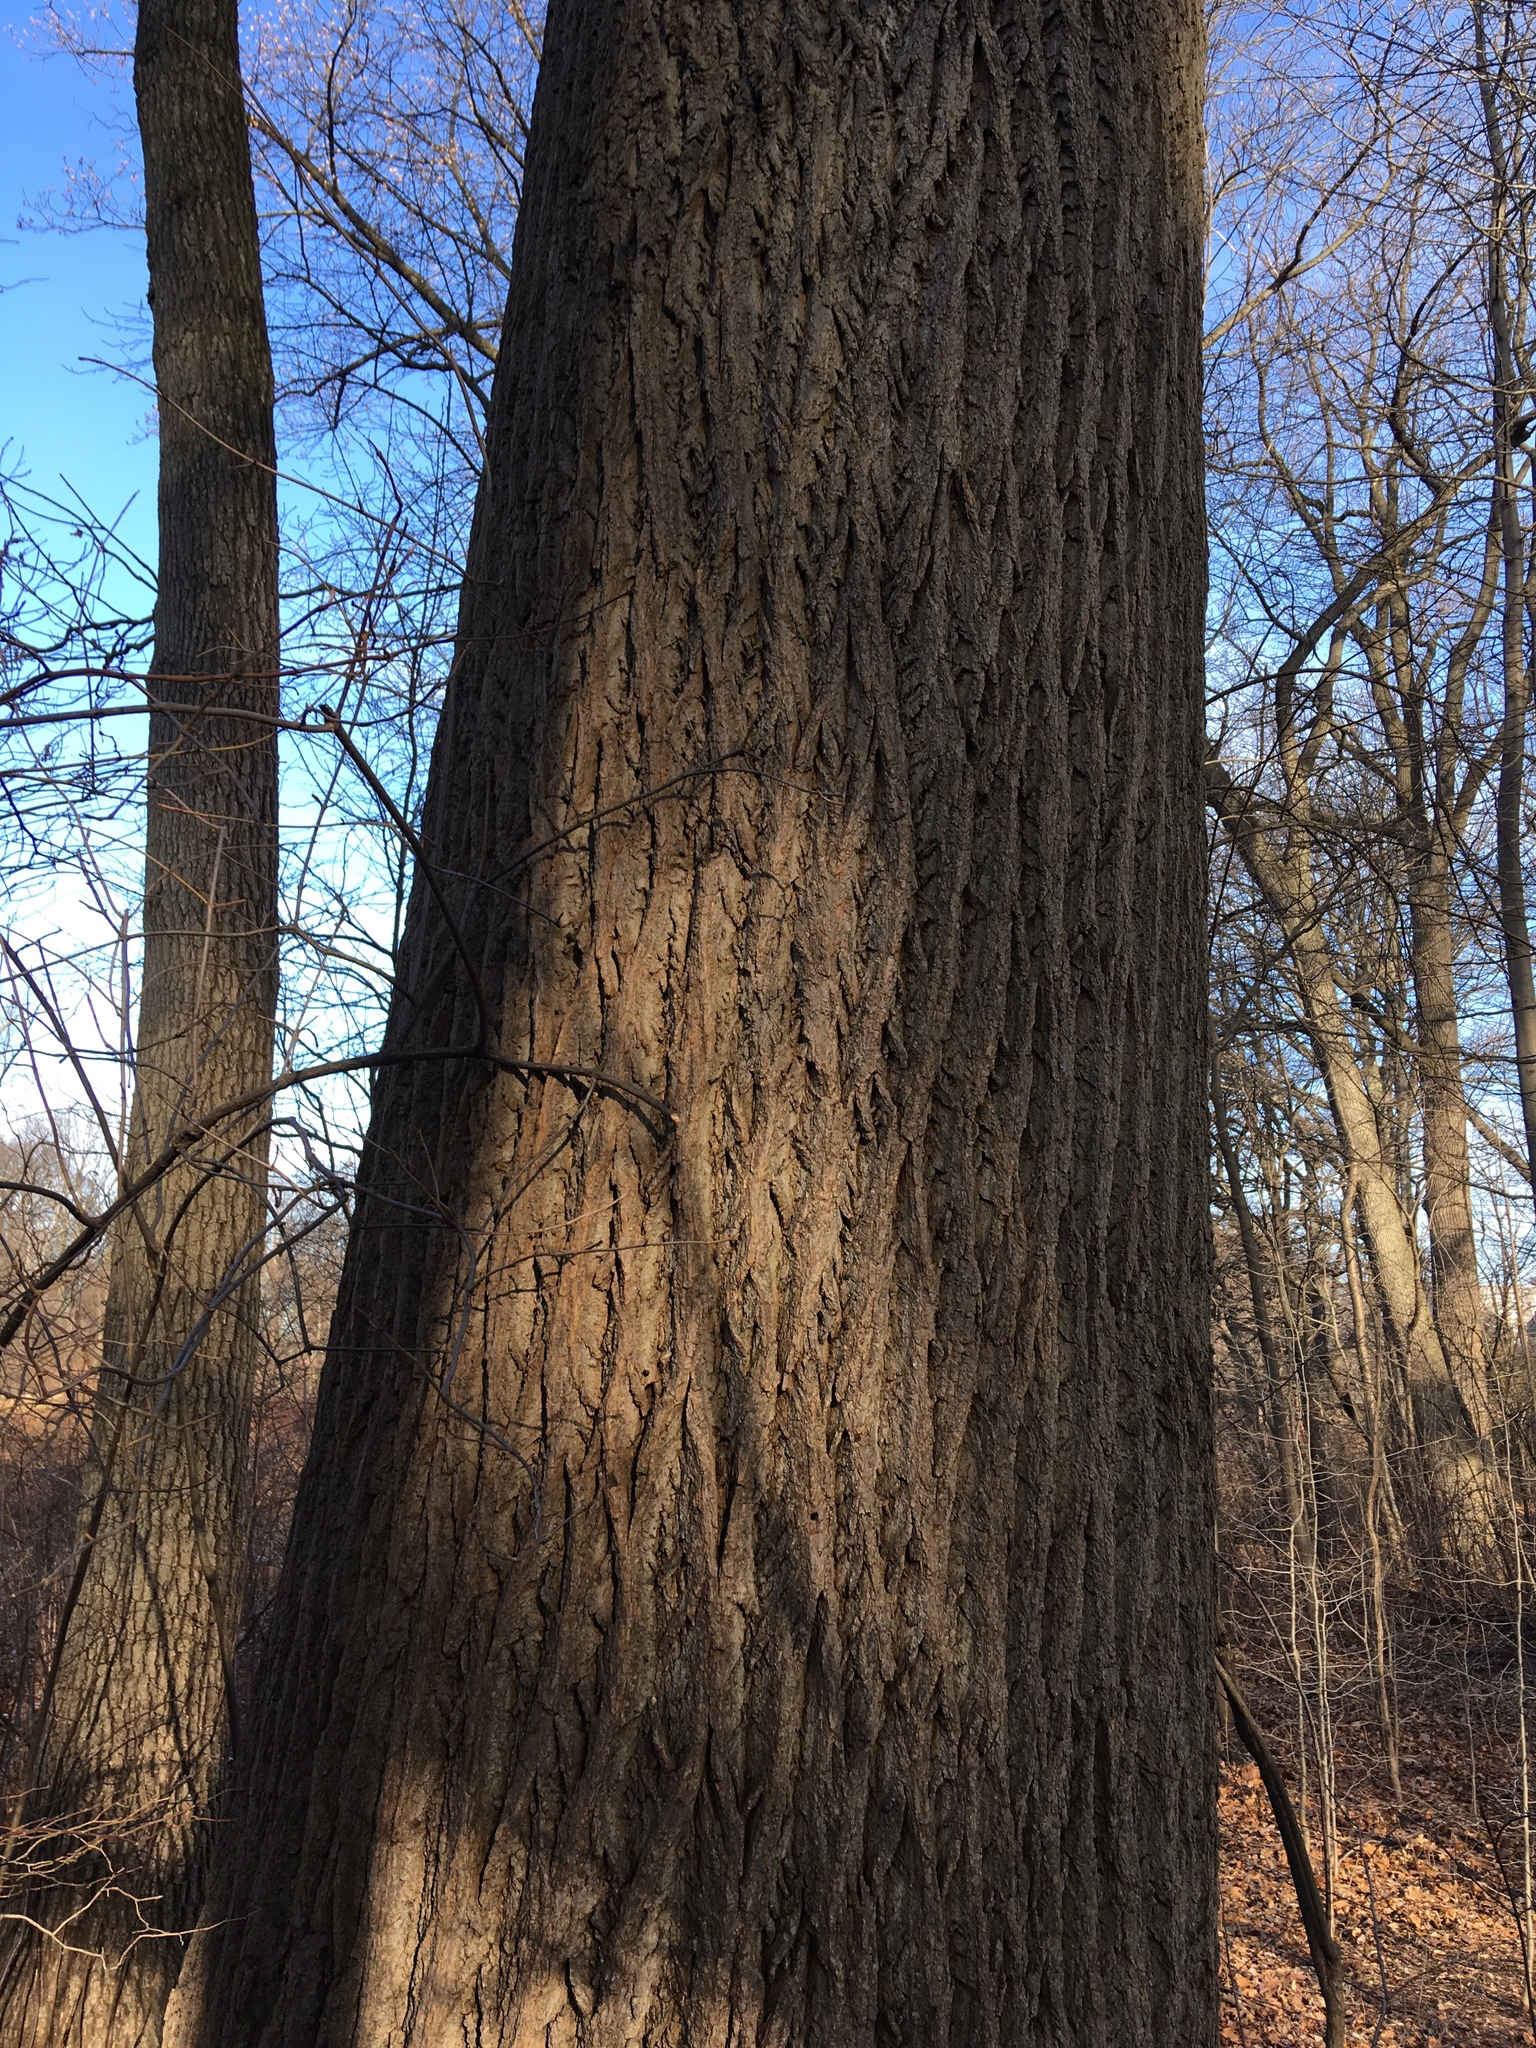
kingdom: Plantae
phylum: Tracheophyta
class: Magnoliopsida
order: Magnoliales
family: Magnoliaceae
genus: Liriodendron
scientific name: Liriodendron tulipifera
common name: Tulip tree
